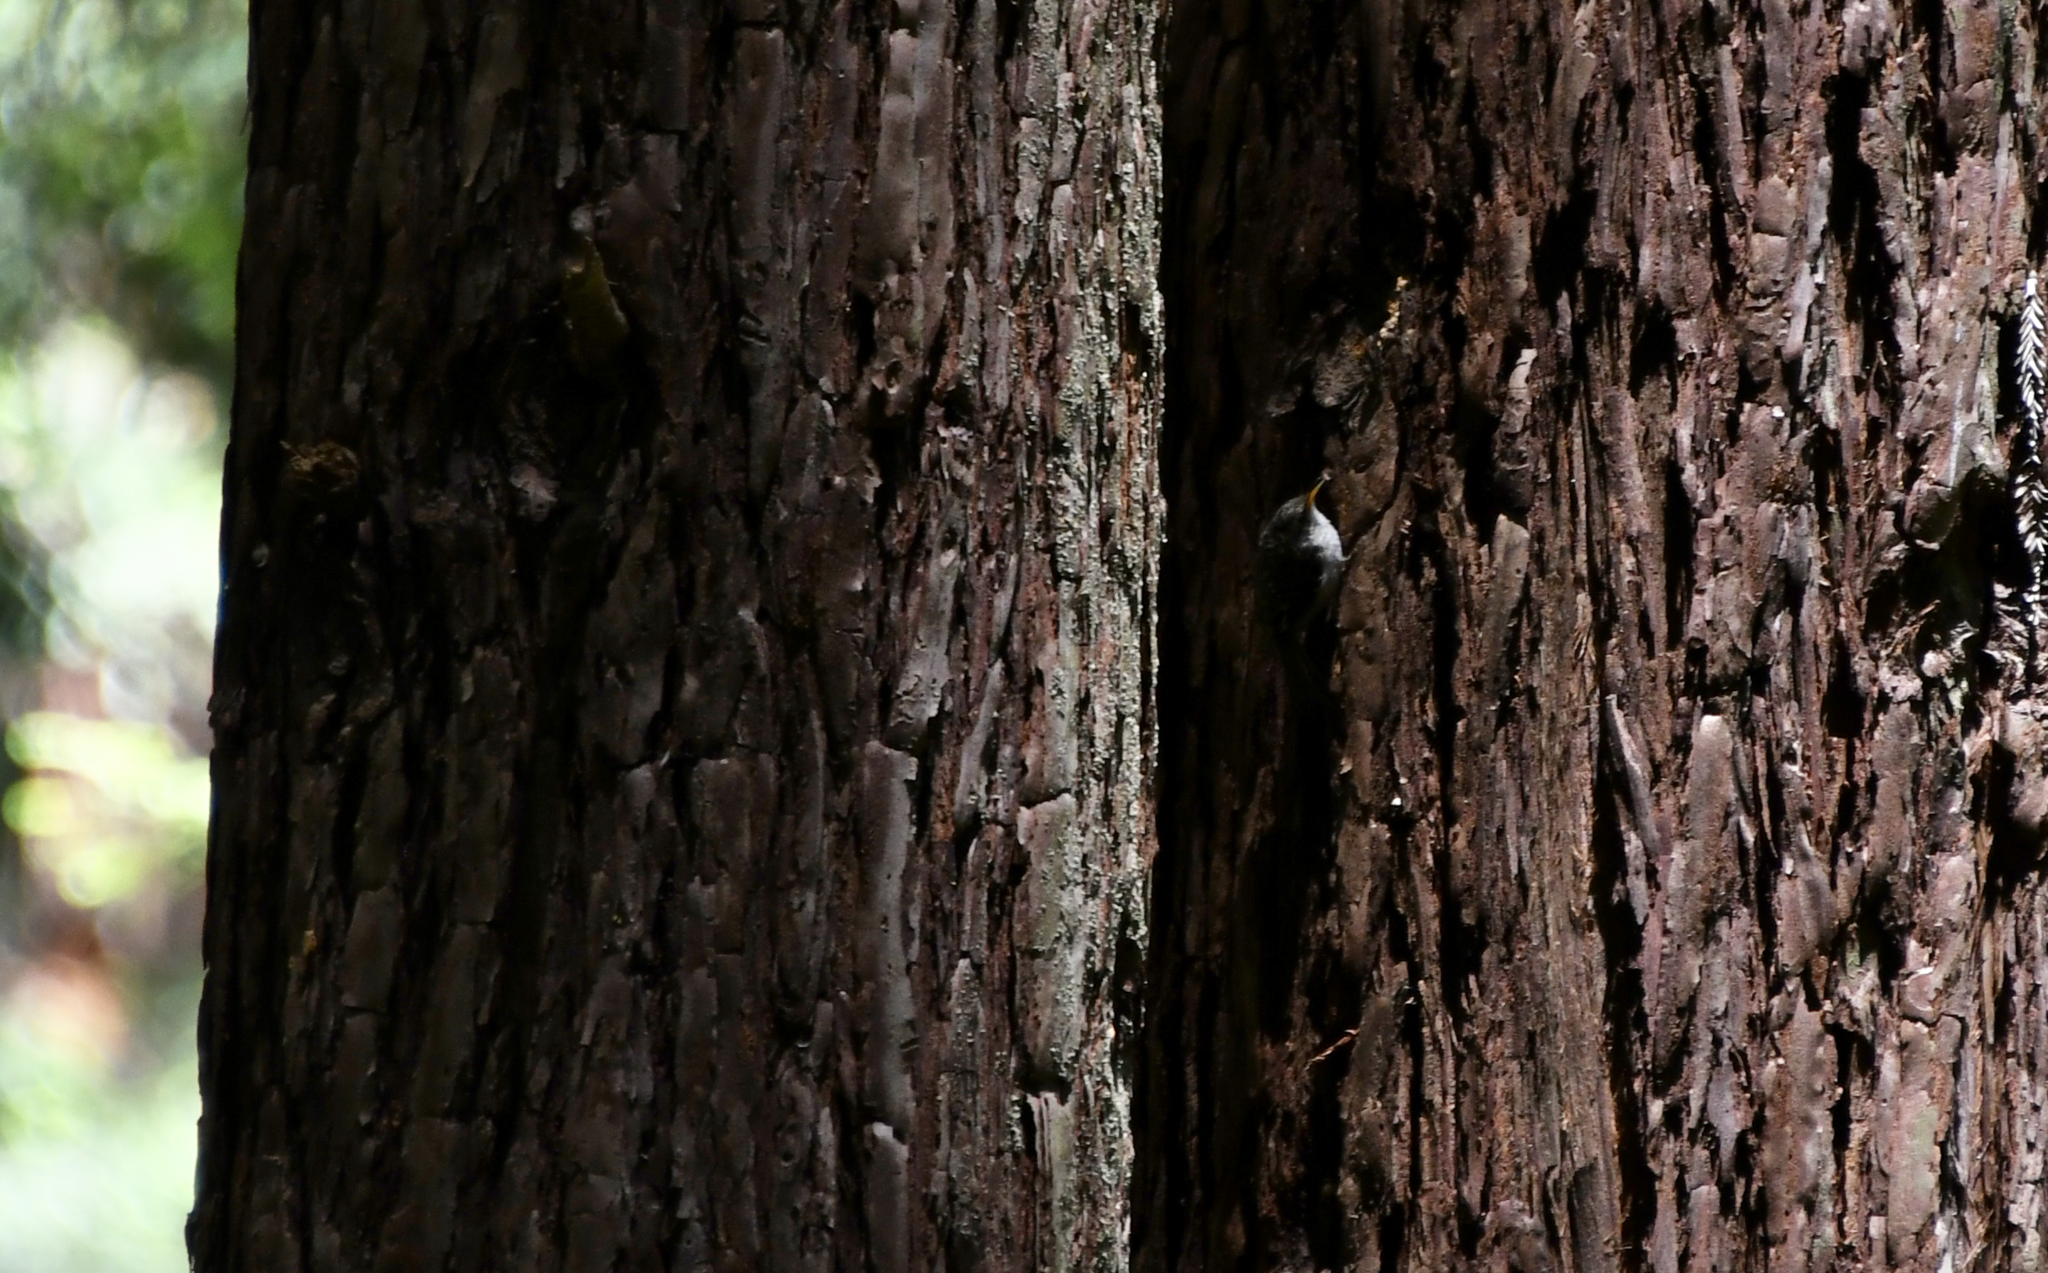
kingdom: Animalia
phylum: Chordata
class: Aves
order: Passeriformes
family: Certhiidae
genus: Certhia
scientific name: Certhia americana
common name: Brown creeper
